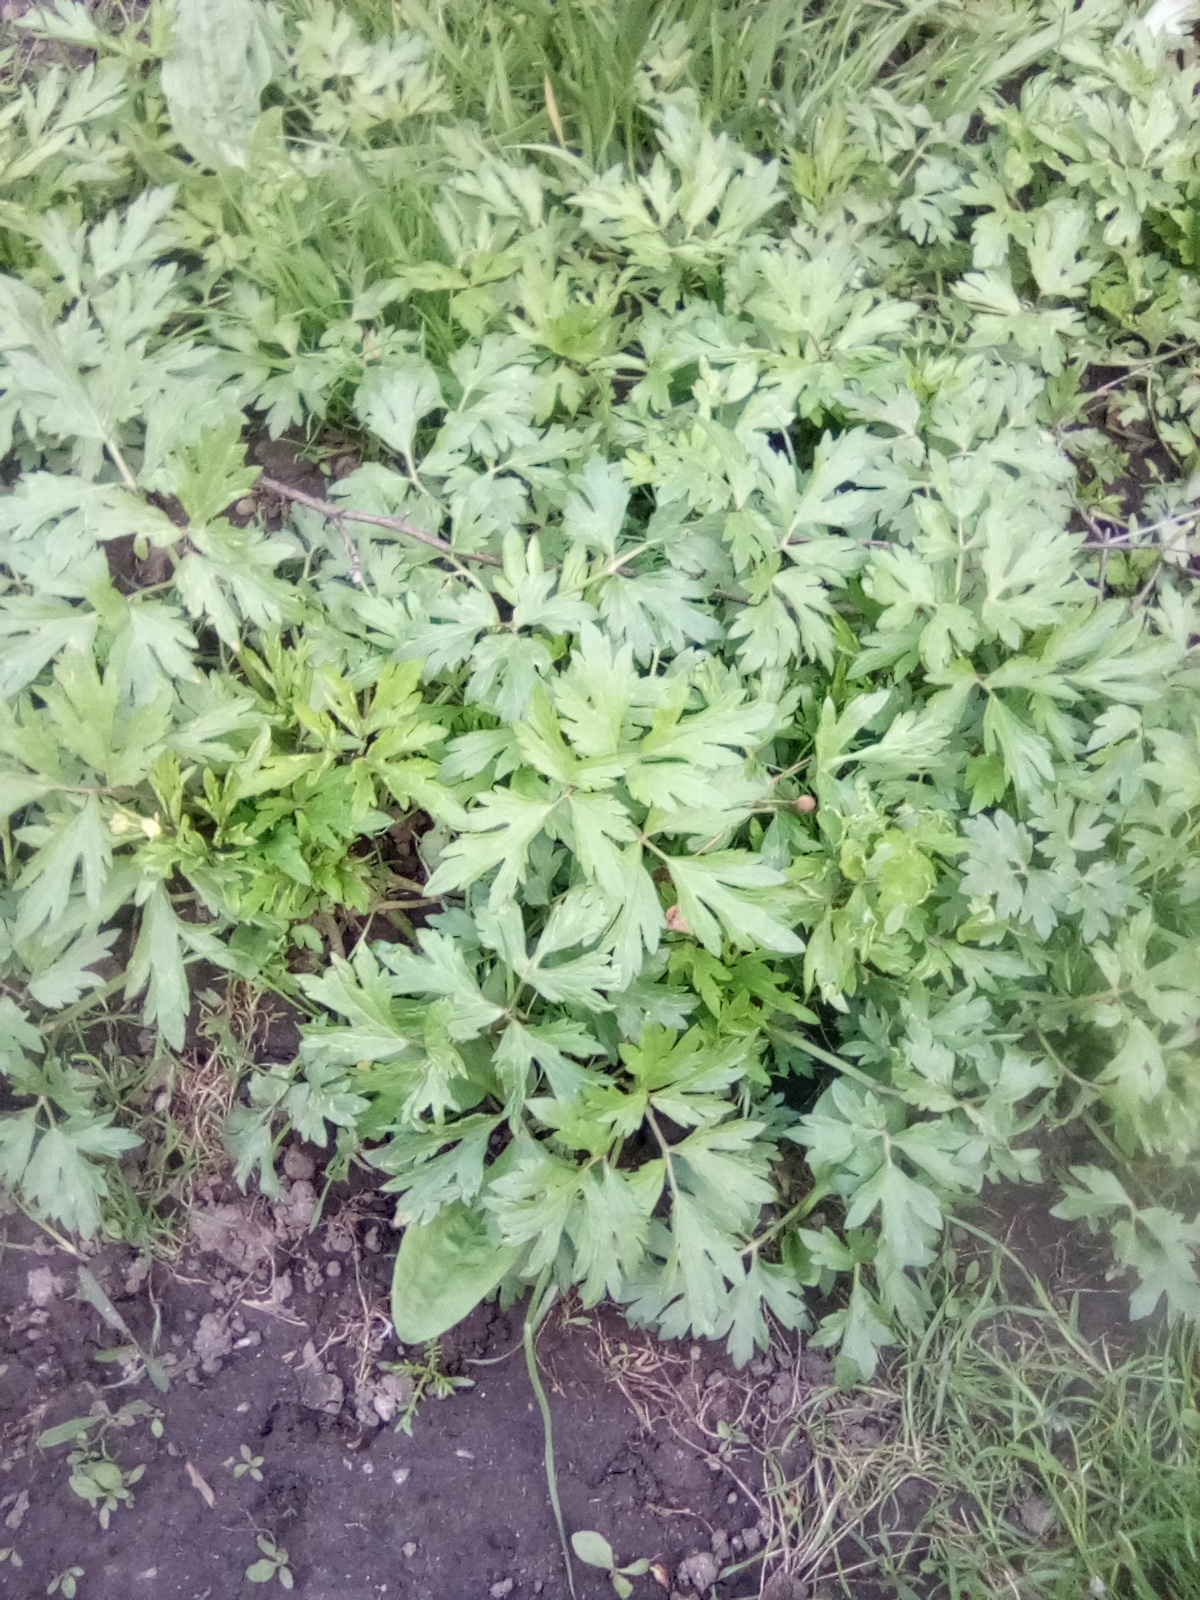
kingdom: Plantae
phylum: Tracheophyta
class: Magnoliopsida
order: Ranunculales
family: Ranunculaceae
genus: Ranunculus
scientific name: Ranunculus repens
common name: Creeping buttercup
